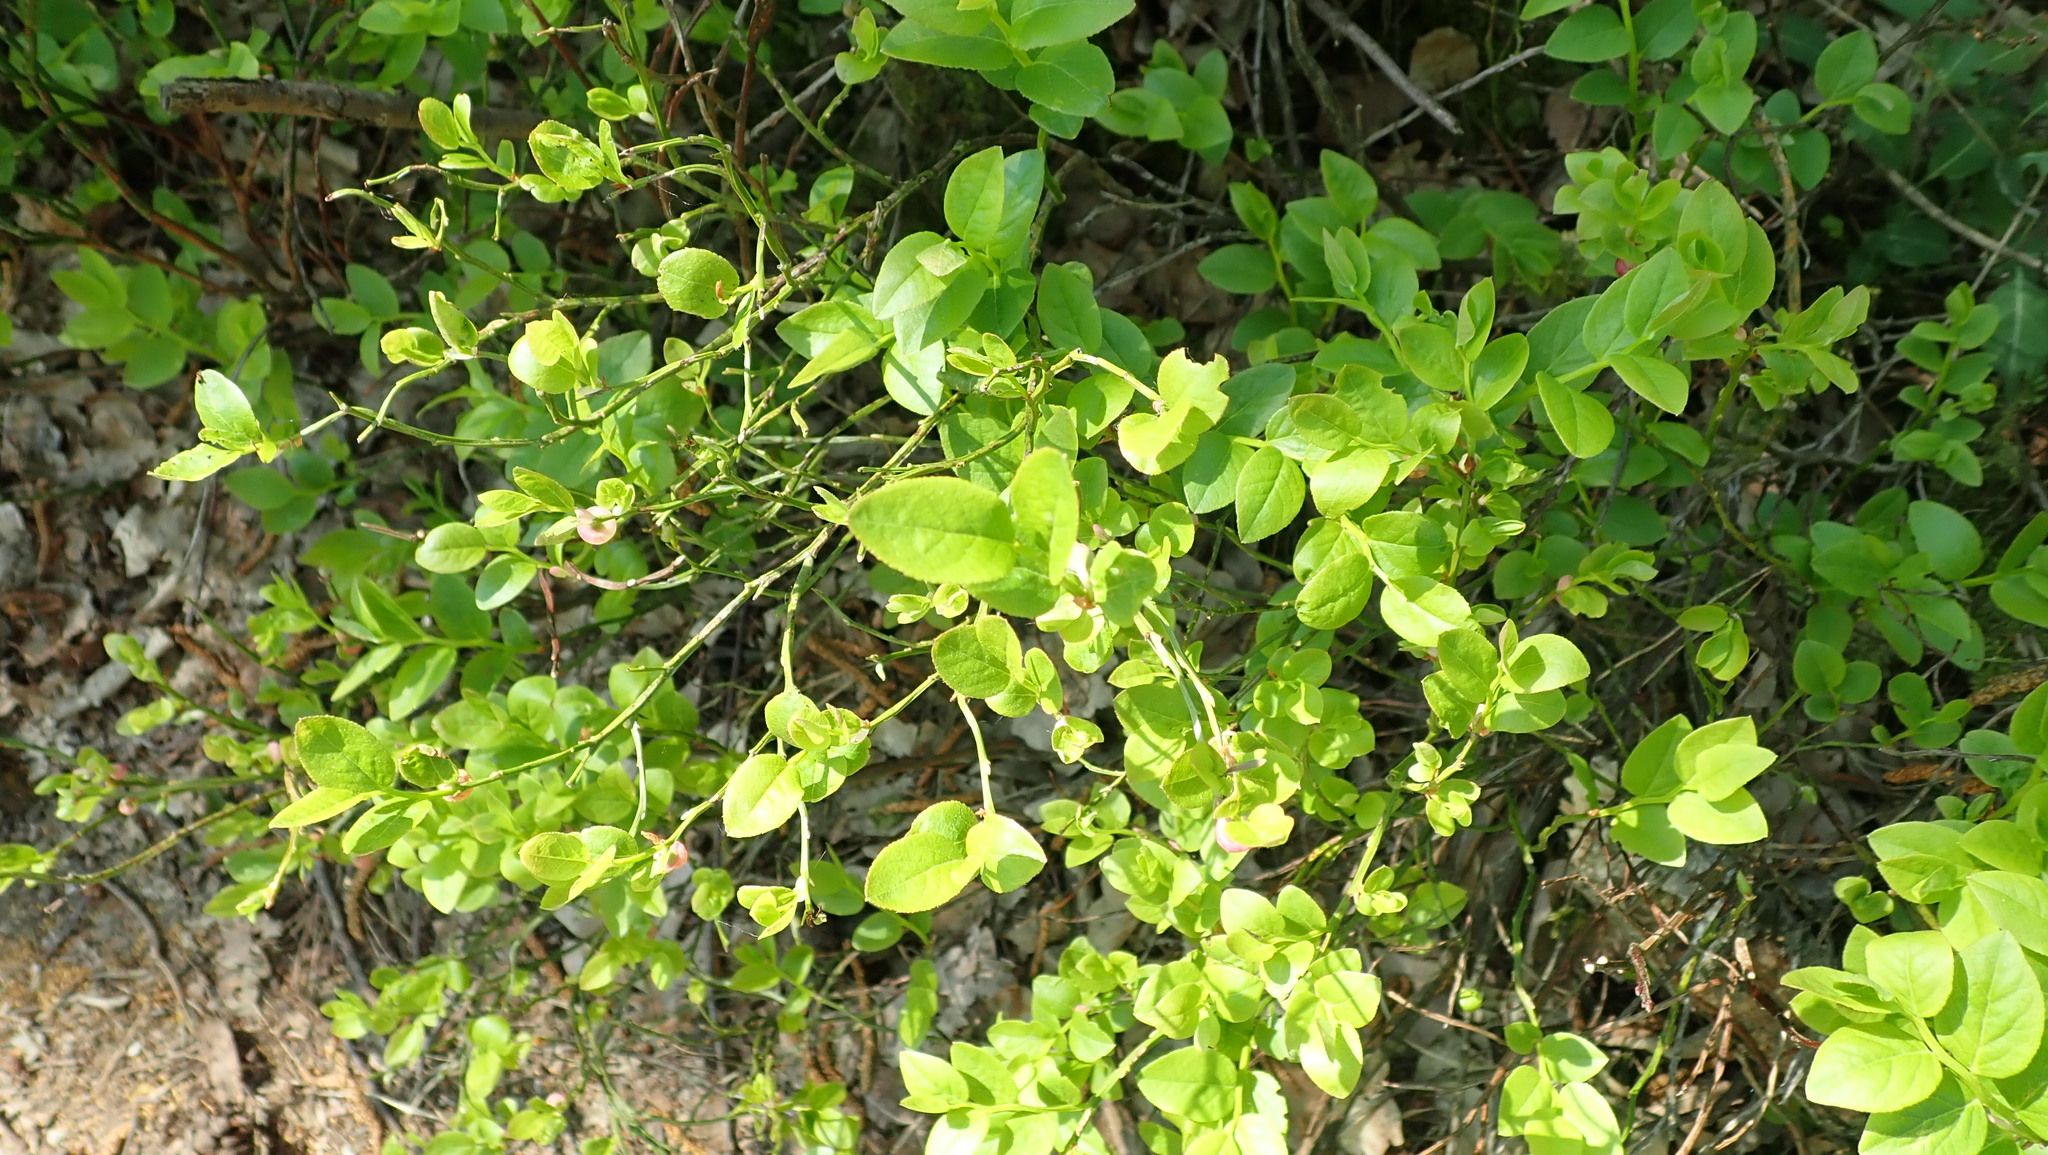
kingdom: Plantae
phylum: Tracheophyta
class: Magnoliopsida
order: Ericales
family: Ericaceae
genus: Vaccinium
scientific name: Vaccinium myrtillus
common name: Bilberry
